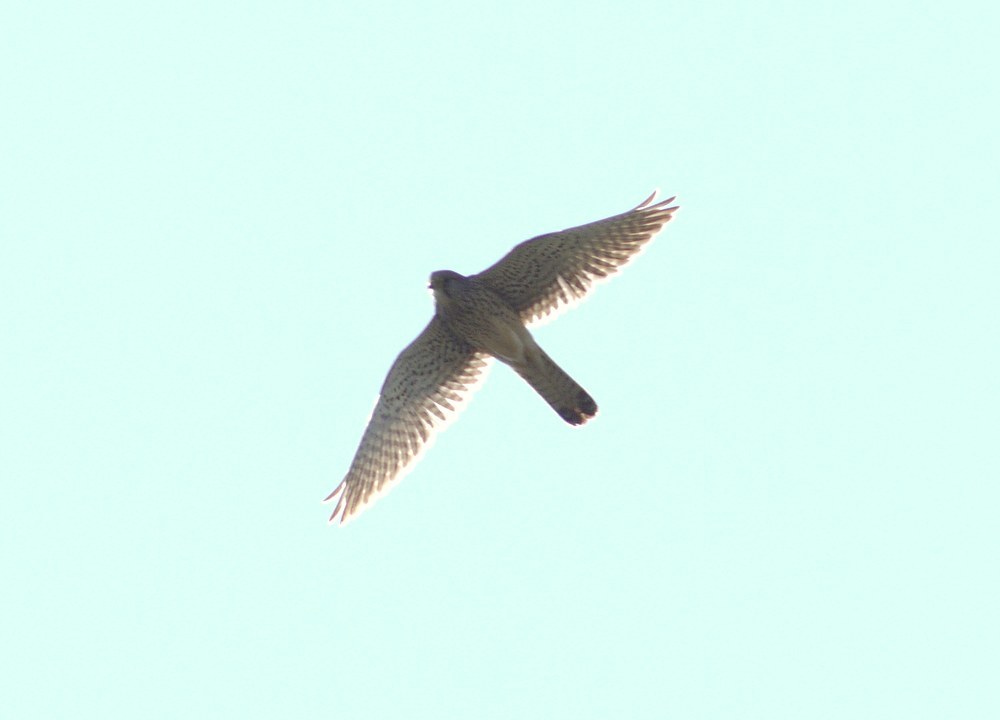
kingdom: Animalia
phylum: Chordata
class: Aves
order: Falconiformes
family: Falconidae
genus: Falco
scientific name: Falco tinnunculus
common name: Common kestrel
